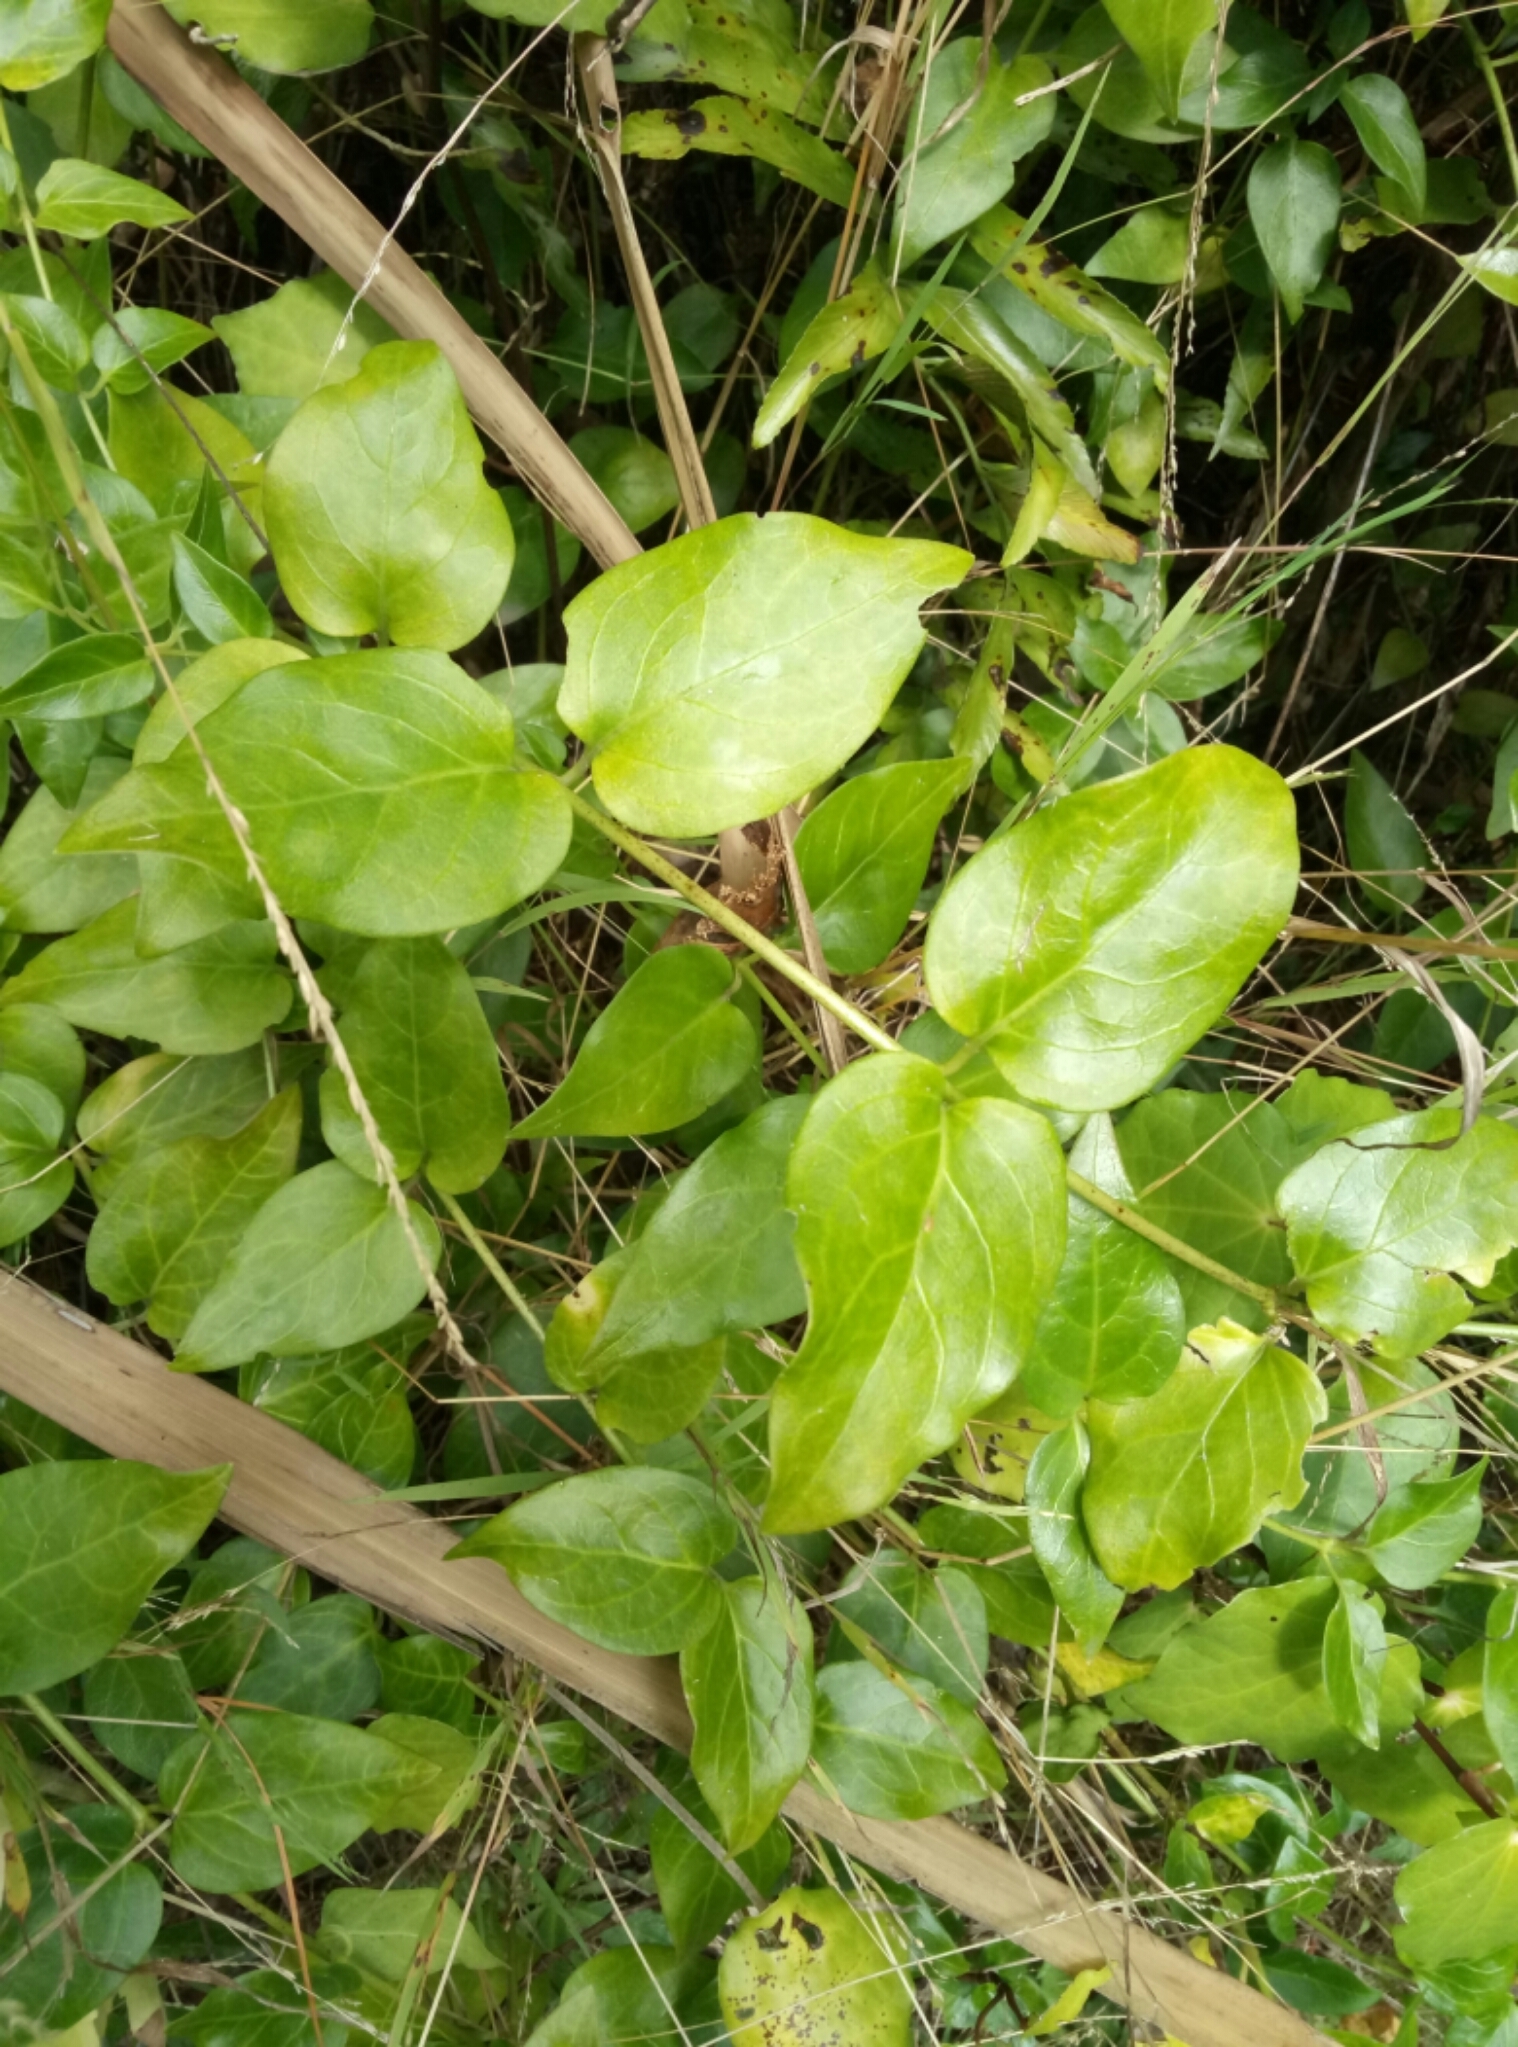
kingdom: Plantae
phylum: Tracheophyta
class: Magnoliopsida
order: Gentianales
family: Apocynaceae
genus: Vinca
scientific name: Vinca major
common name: Greater periwinkle
